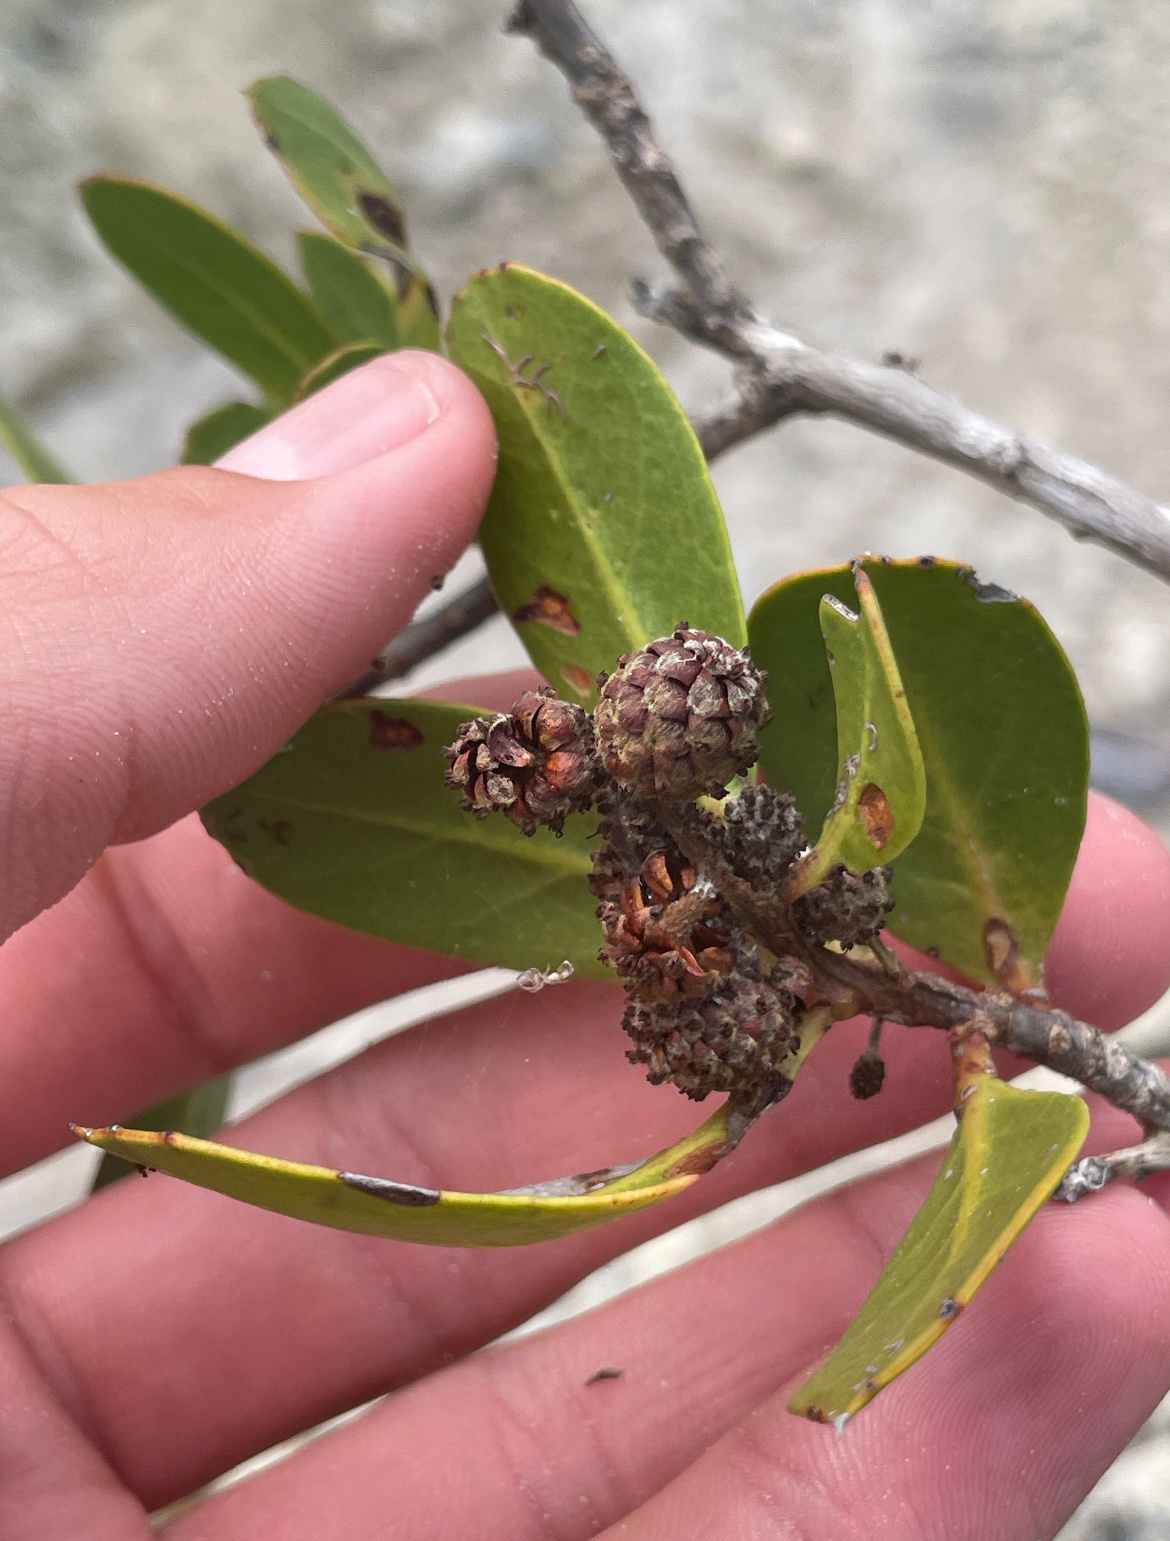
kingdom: Plantae
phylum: Tracheophyta
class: Magnoliopsida
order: Myrtales
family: Combretaceae
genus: Conocarpus
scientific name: Conocarpus erectus
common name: Button mangrove
